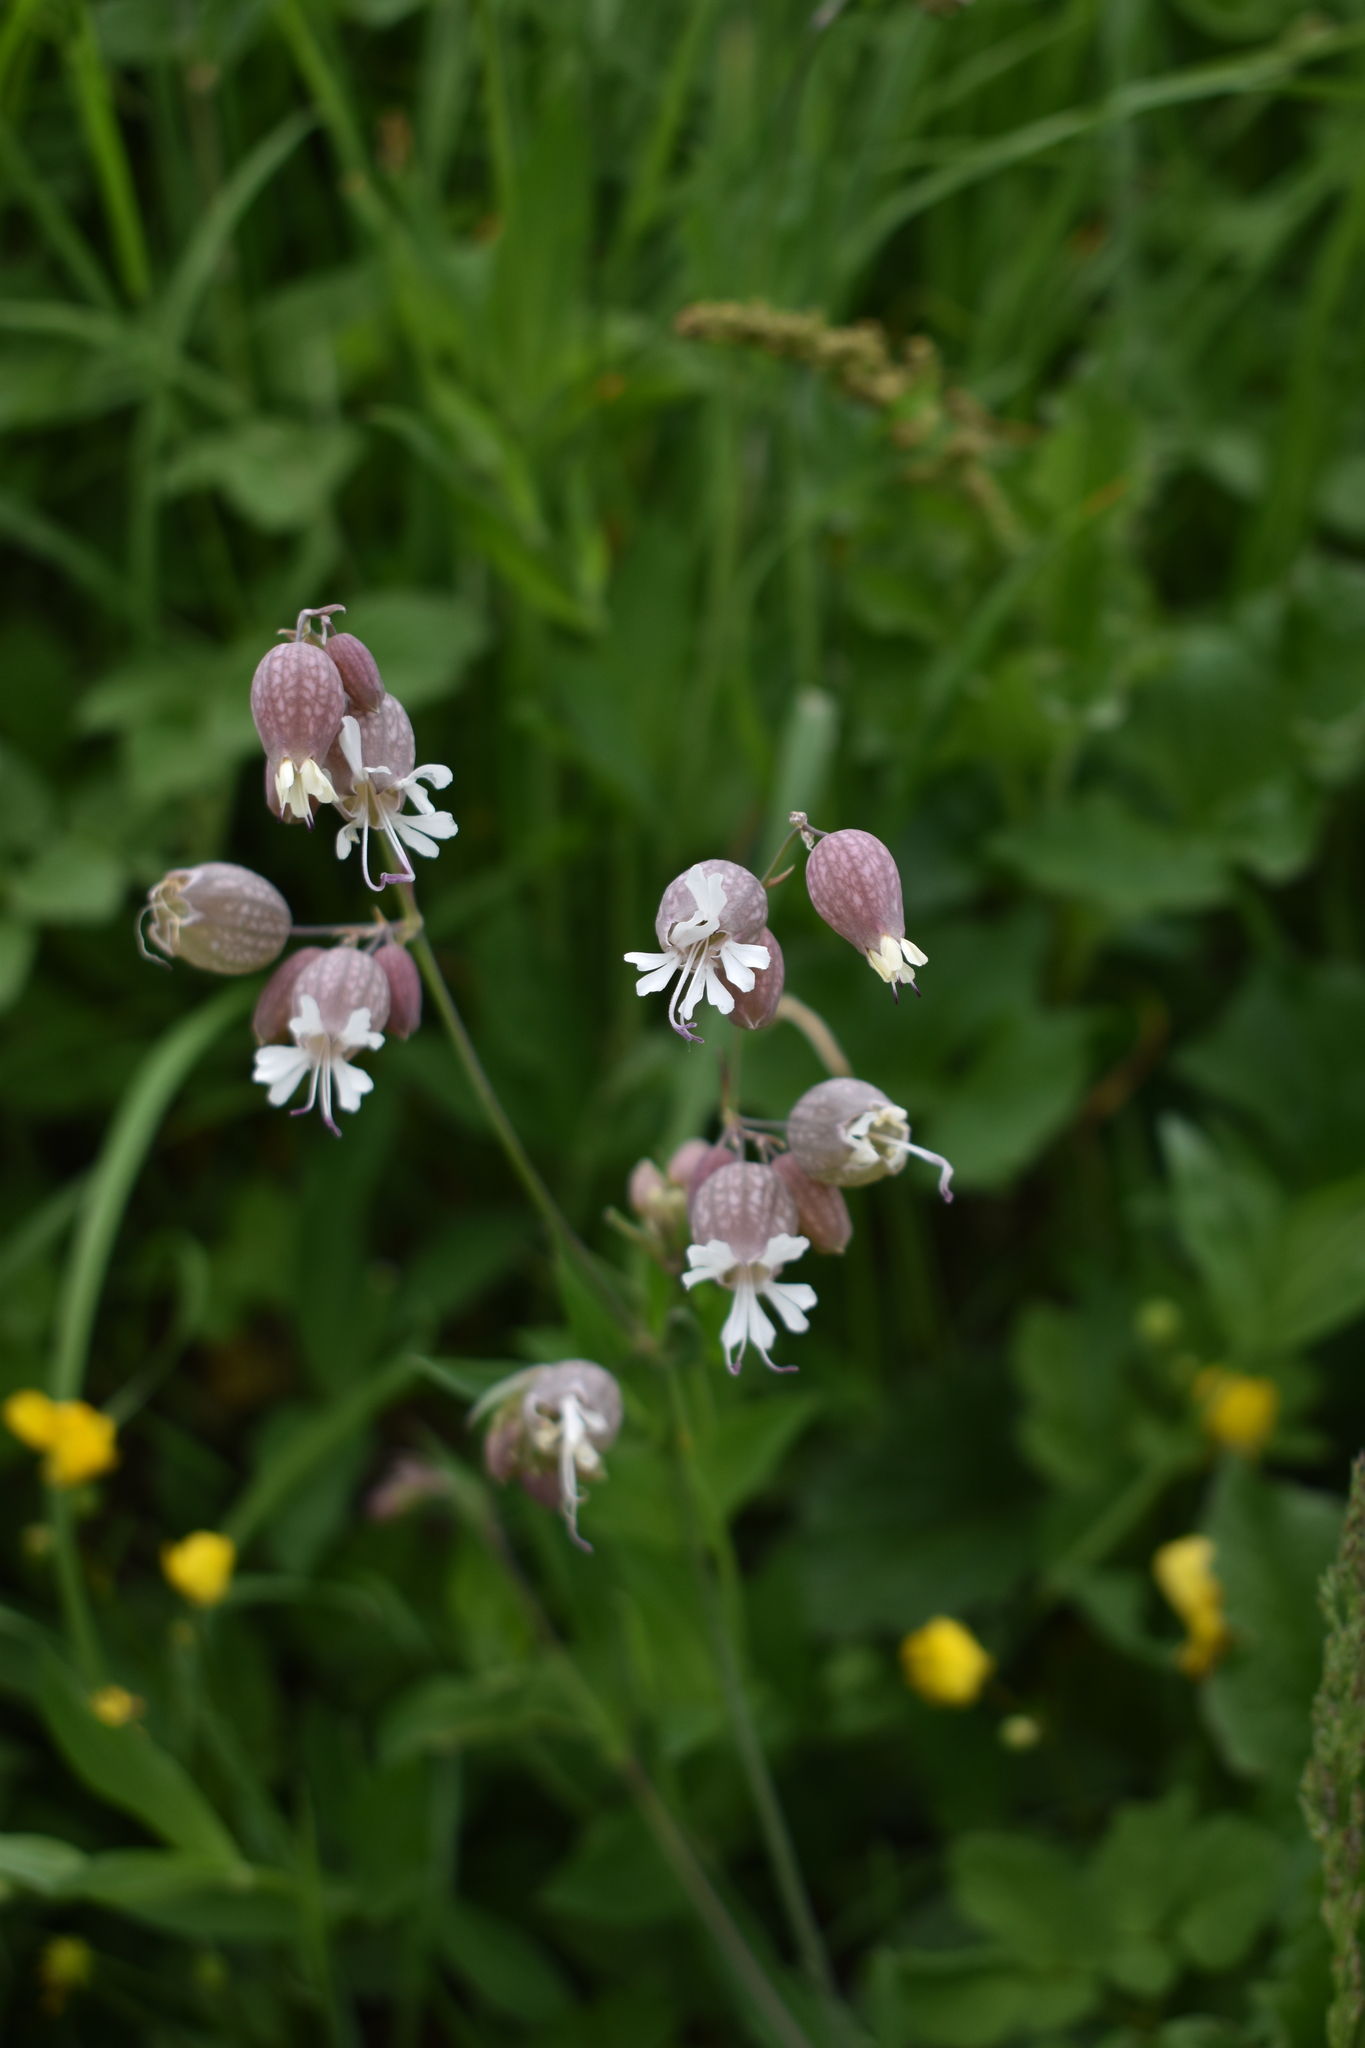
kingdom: Plantae
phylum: Tracheophyta
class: Magnoliopsida
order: Caryophyllales
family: Caryophyllaceae
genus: Silene
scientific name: Silene vulgaris
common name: Bladder campion
